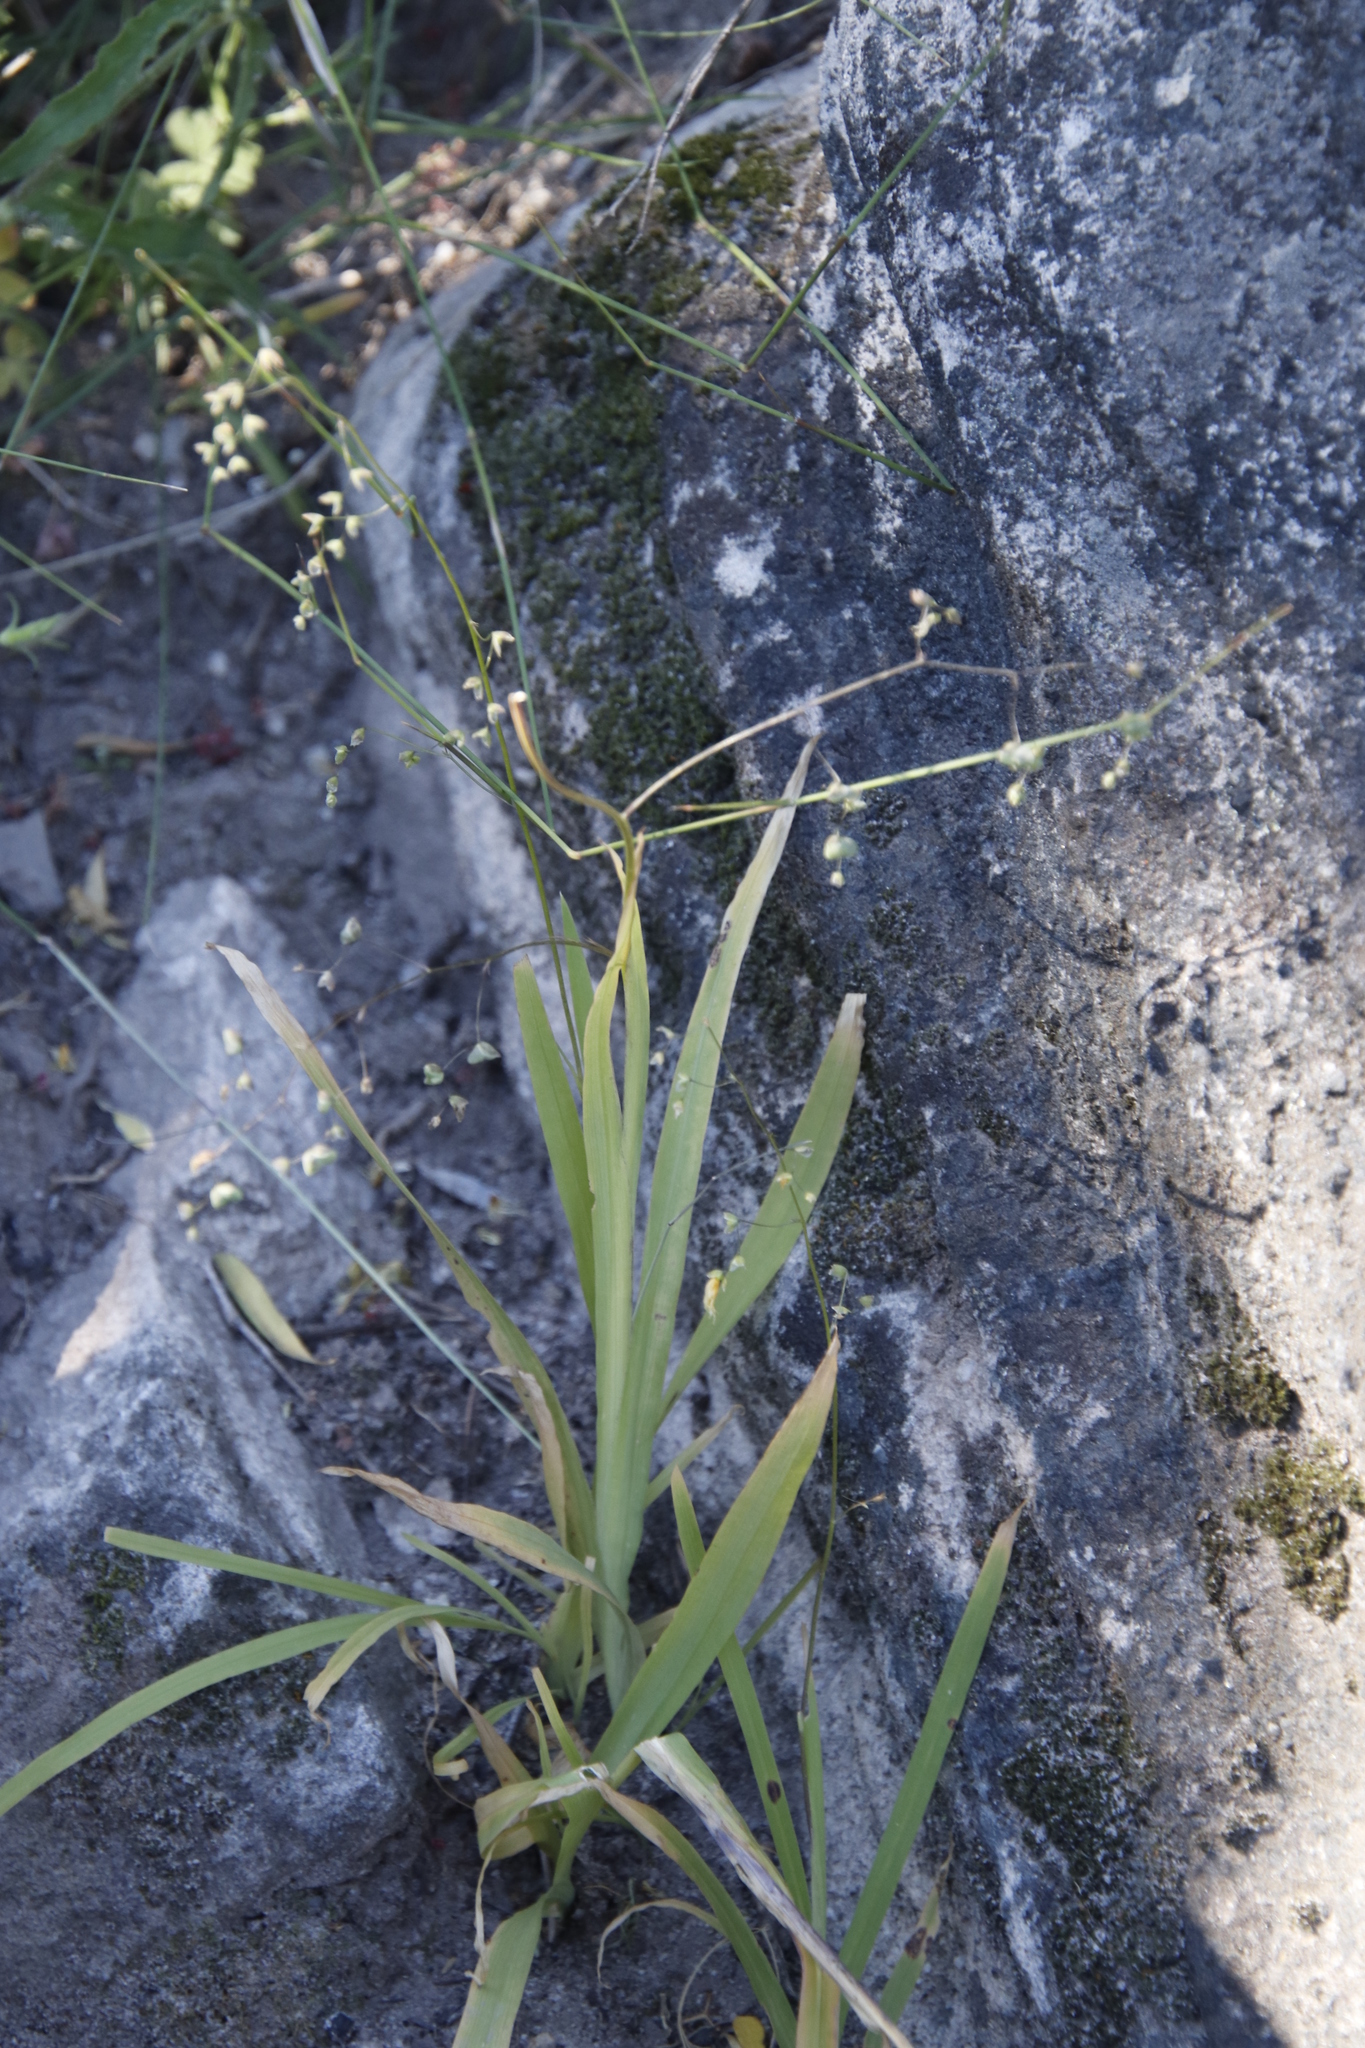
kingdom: Plantae
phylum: Tracheophyta
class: Liliopsida
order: Asparagales
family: Iridaceae
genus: Melasphaerula
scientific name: Melasphaerula graminea
